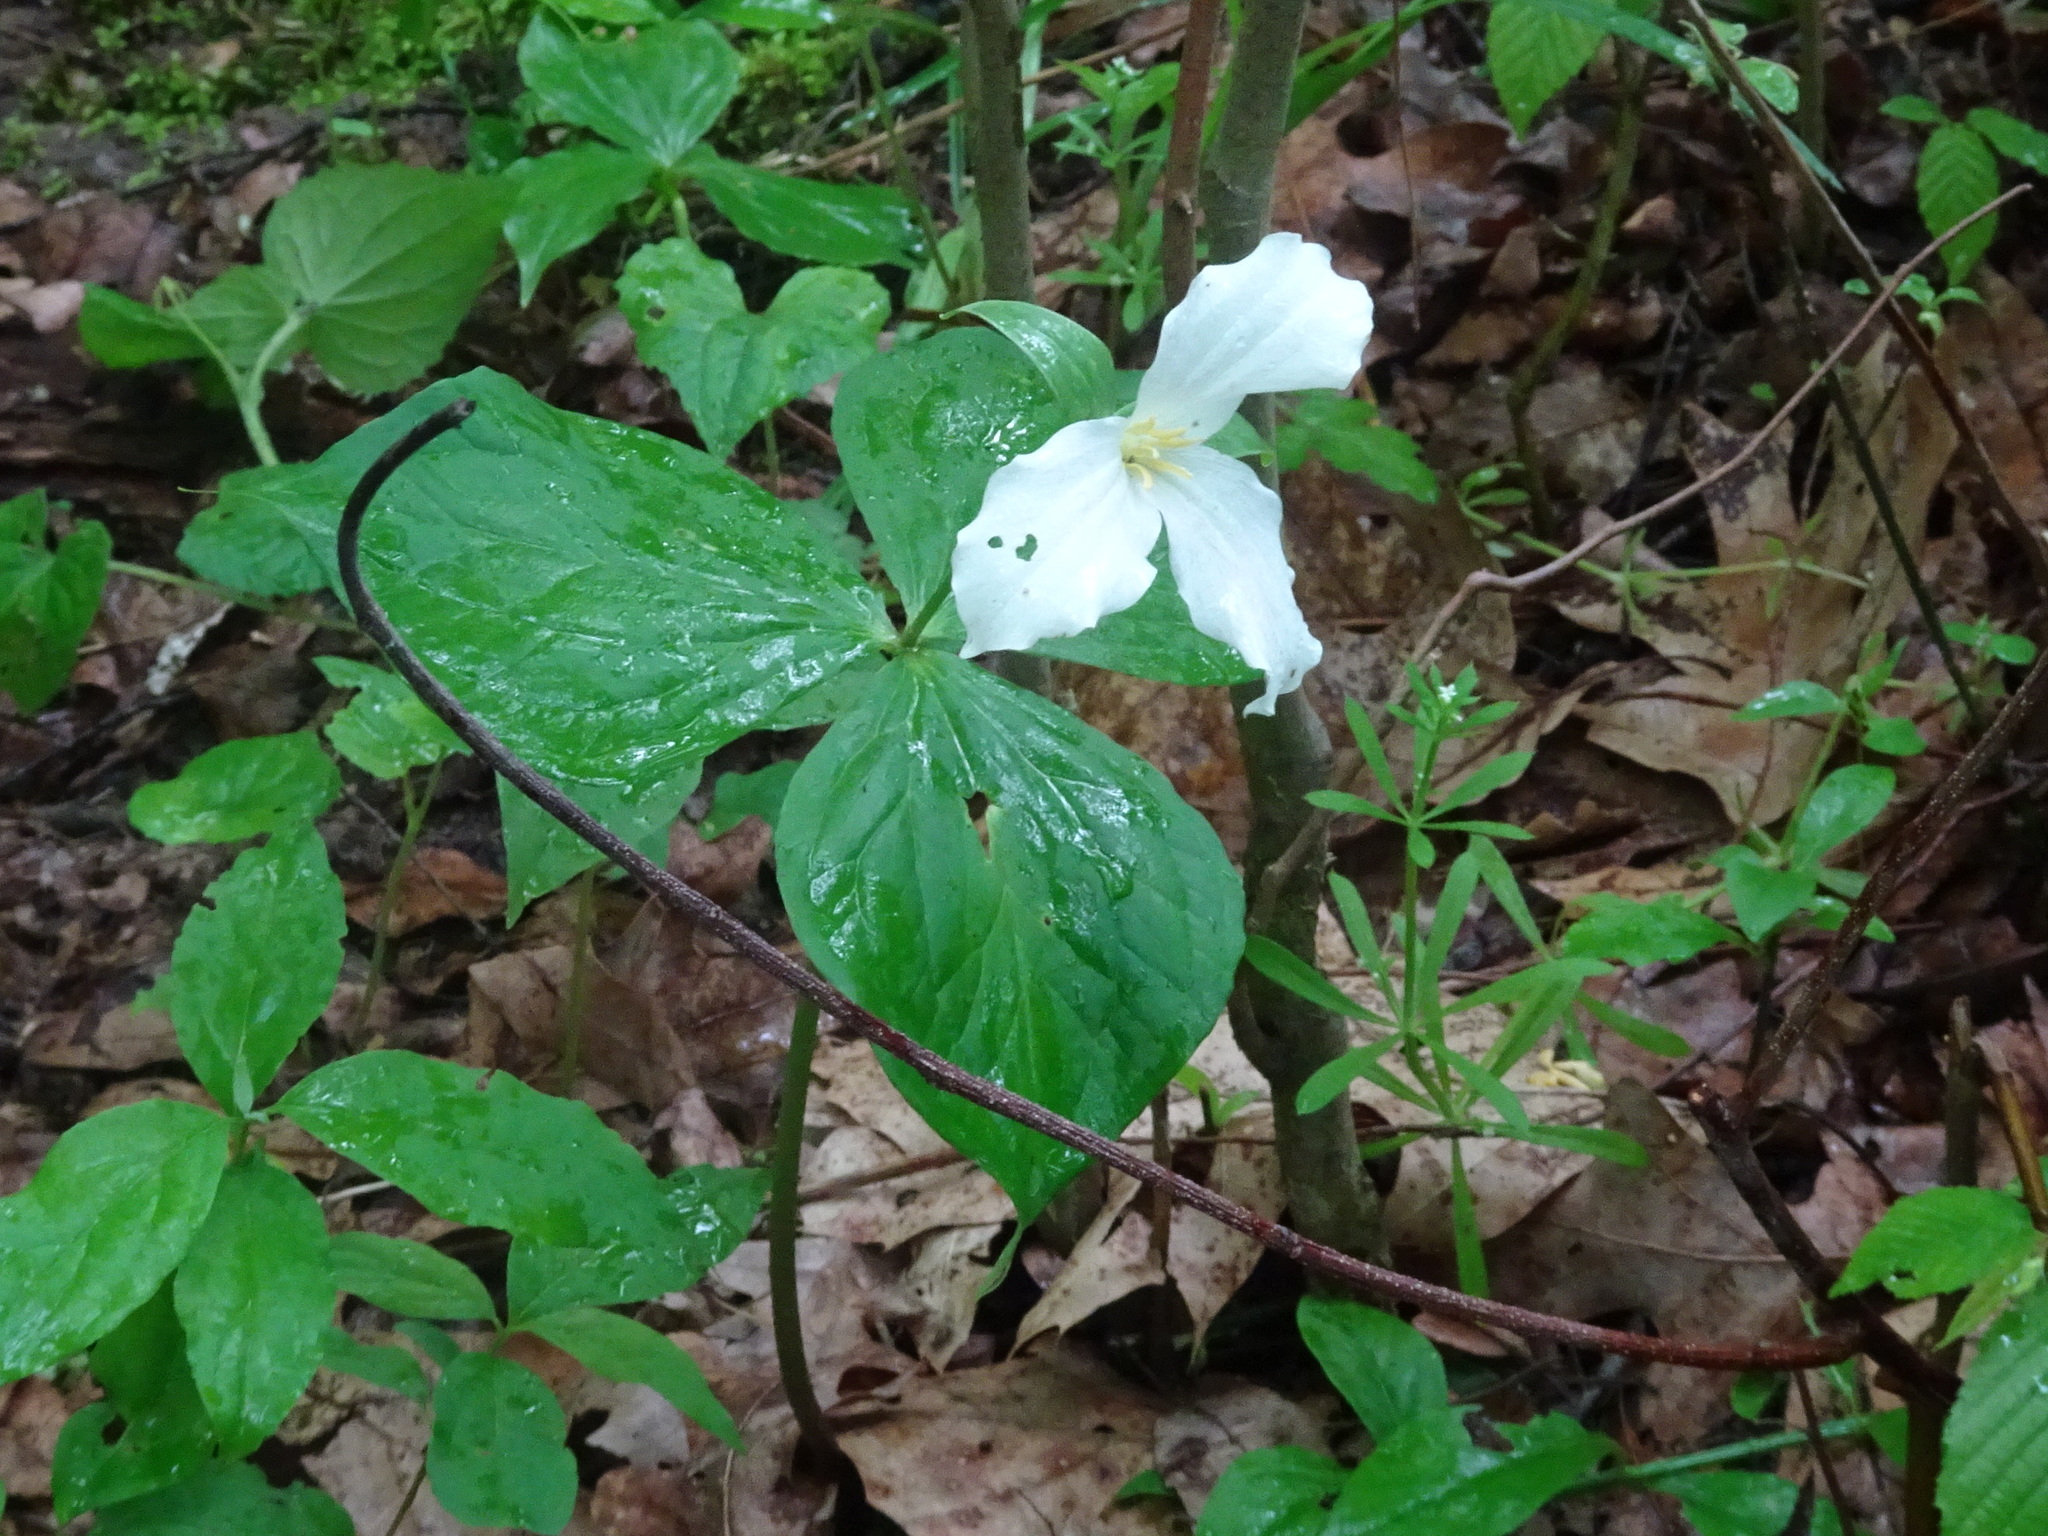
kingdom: Plantae
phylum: Tracheophyta
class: Liliopsida
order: Liliales
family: Melanthiaceae
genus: Trillium
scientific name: Trillium grandiflorum
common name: Great white trillium
